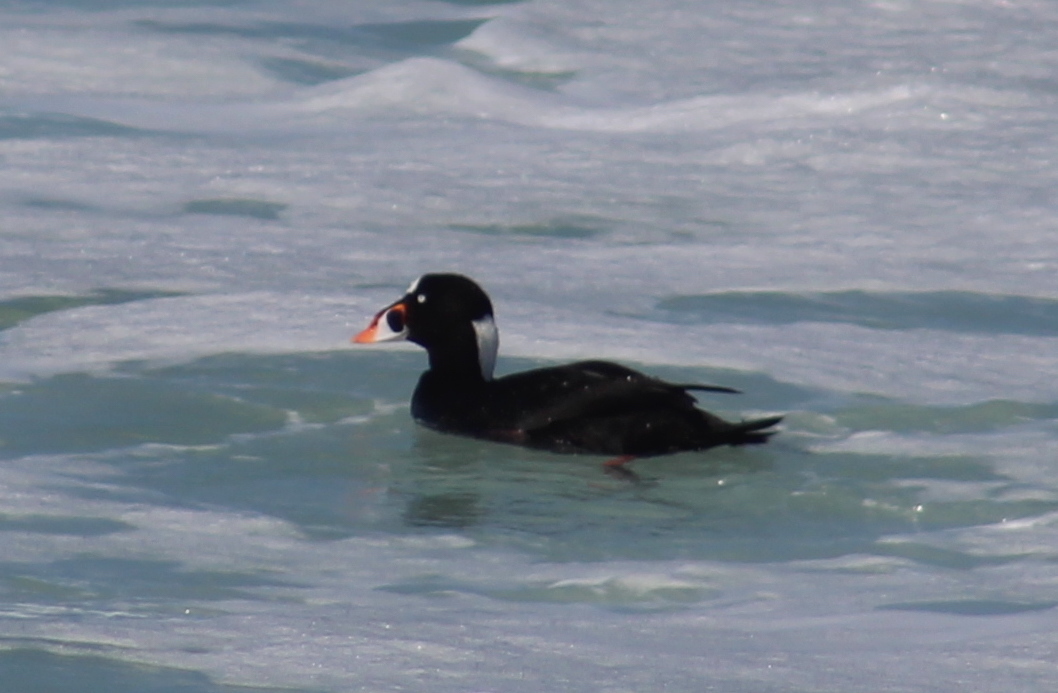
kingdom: Animalia
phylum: Chordata
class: Aves
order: Anseriformes
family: Anatidae
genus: Melanitta
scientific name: Melanitta perspicillata
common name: Surf scoter
